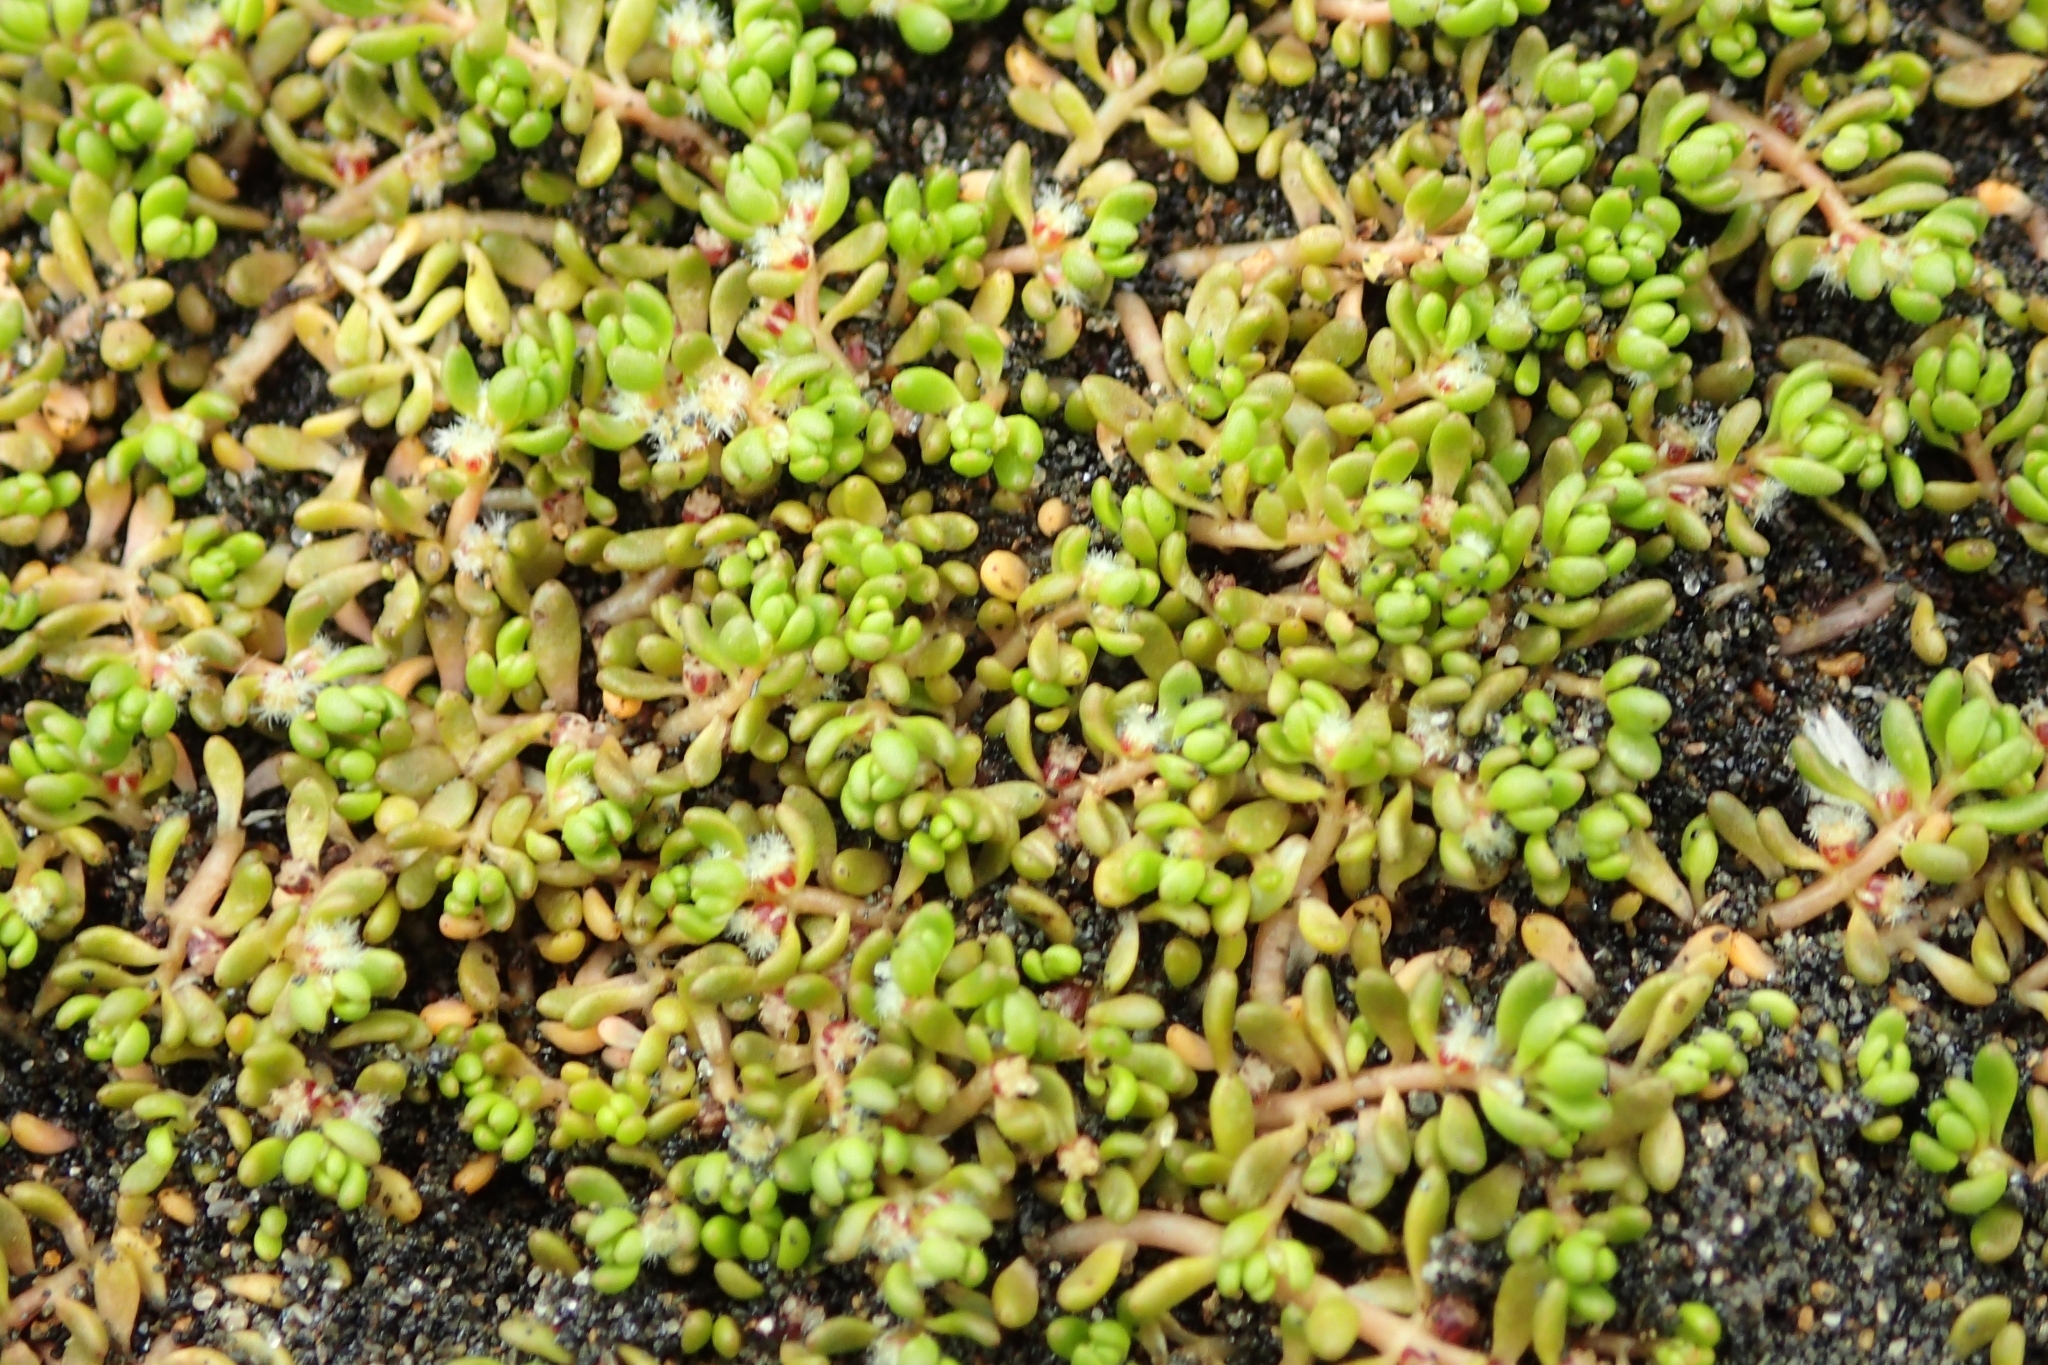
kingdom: Plantae
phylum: Tracheophyta
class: Magnoliopsida
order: Saxifragales
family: Haloragaceae
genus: Myriophyllum
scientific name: Myriophyllum votschii
